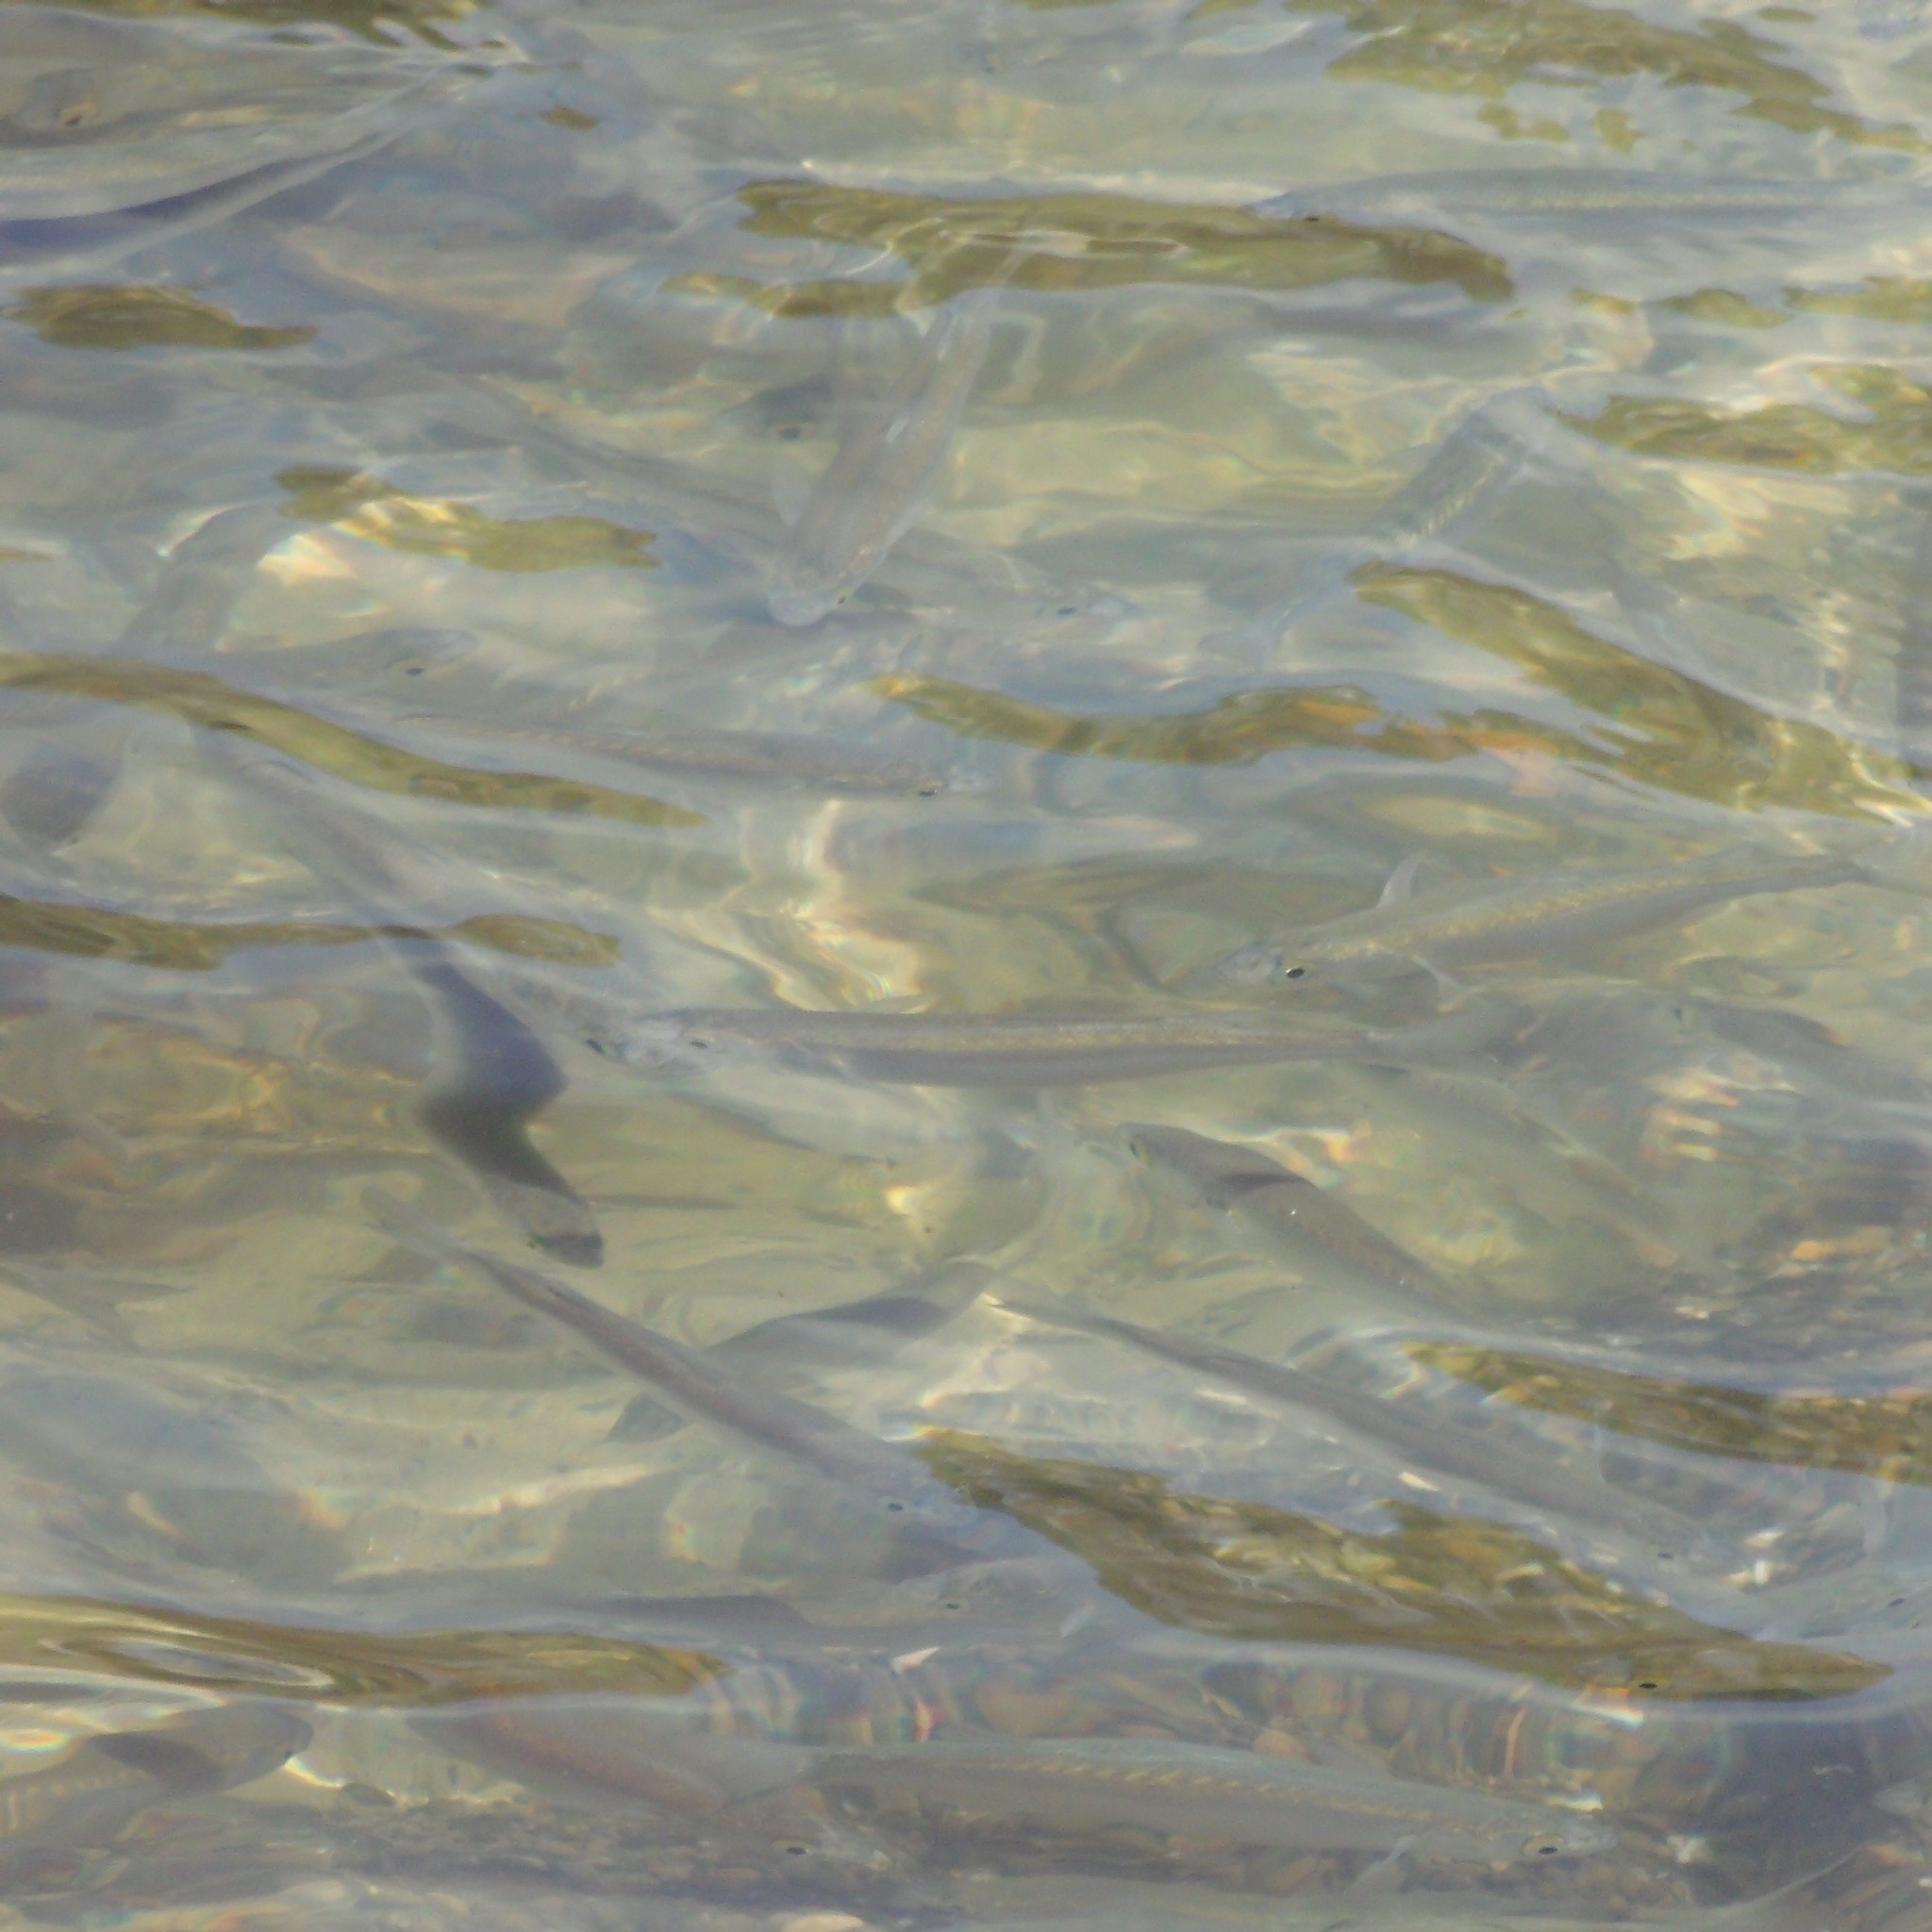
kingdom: Animalia
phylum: Chordata
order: Mugiliformes
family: Mugilidae
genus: Aldrichetta
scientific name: Aldrichetta forsteri
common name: Yellow-eye mullet
